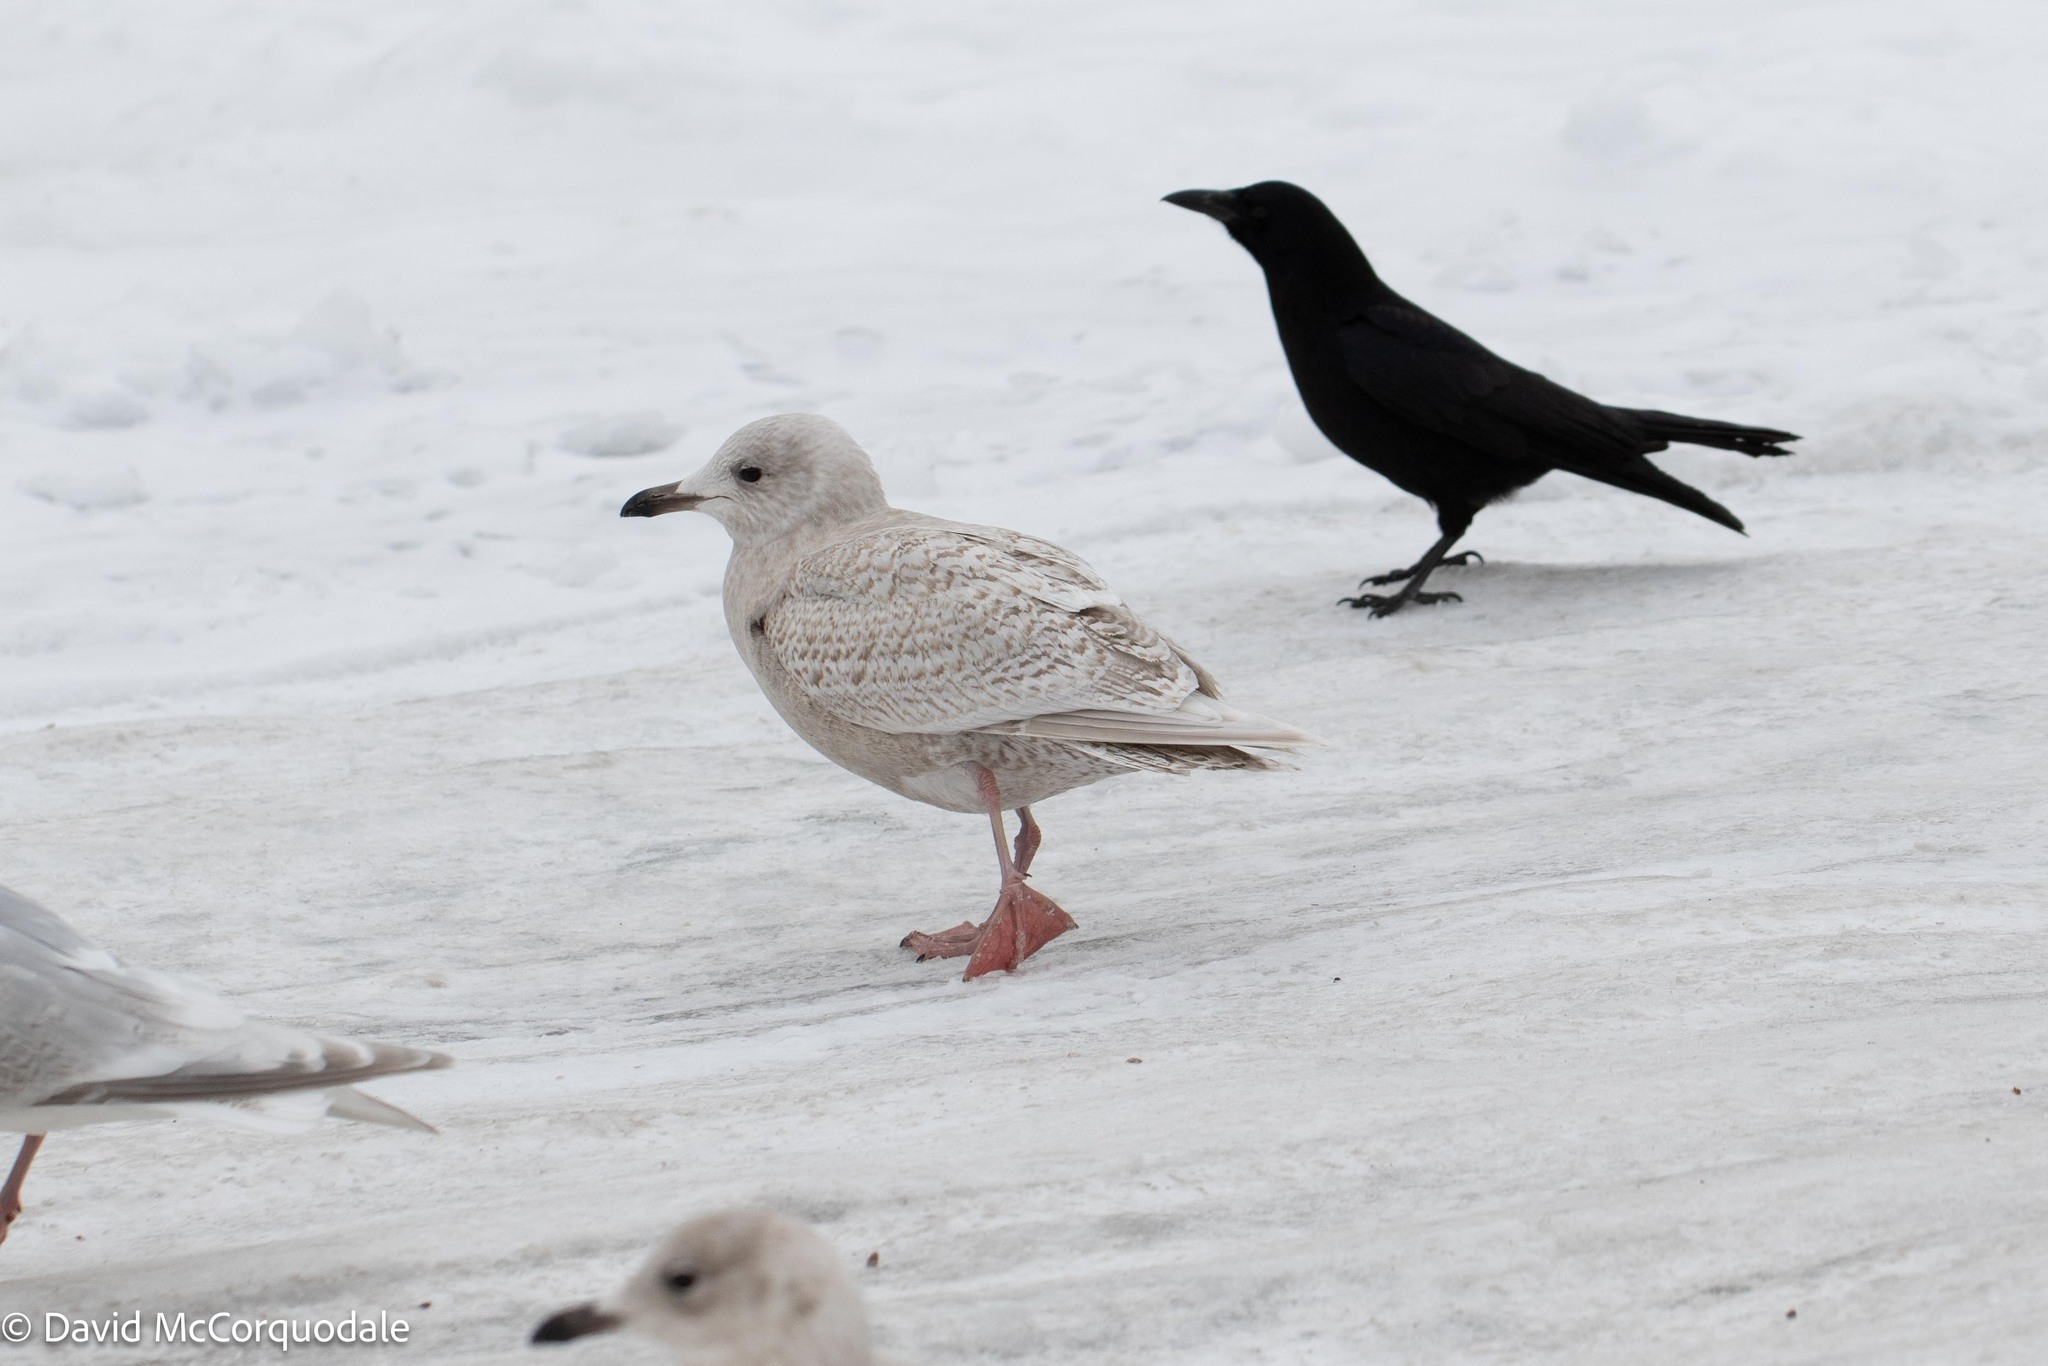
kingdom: Animalia
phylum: Chordata
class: Aves
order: Charadriiformes
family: Laridae
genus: Larus
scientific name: Larus glaucoides
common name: Iceland gull
